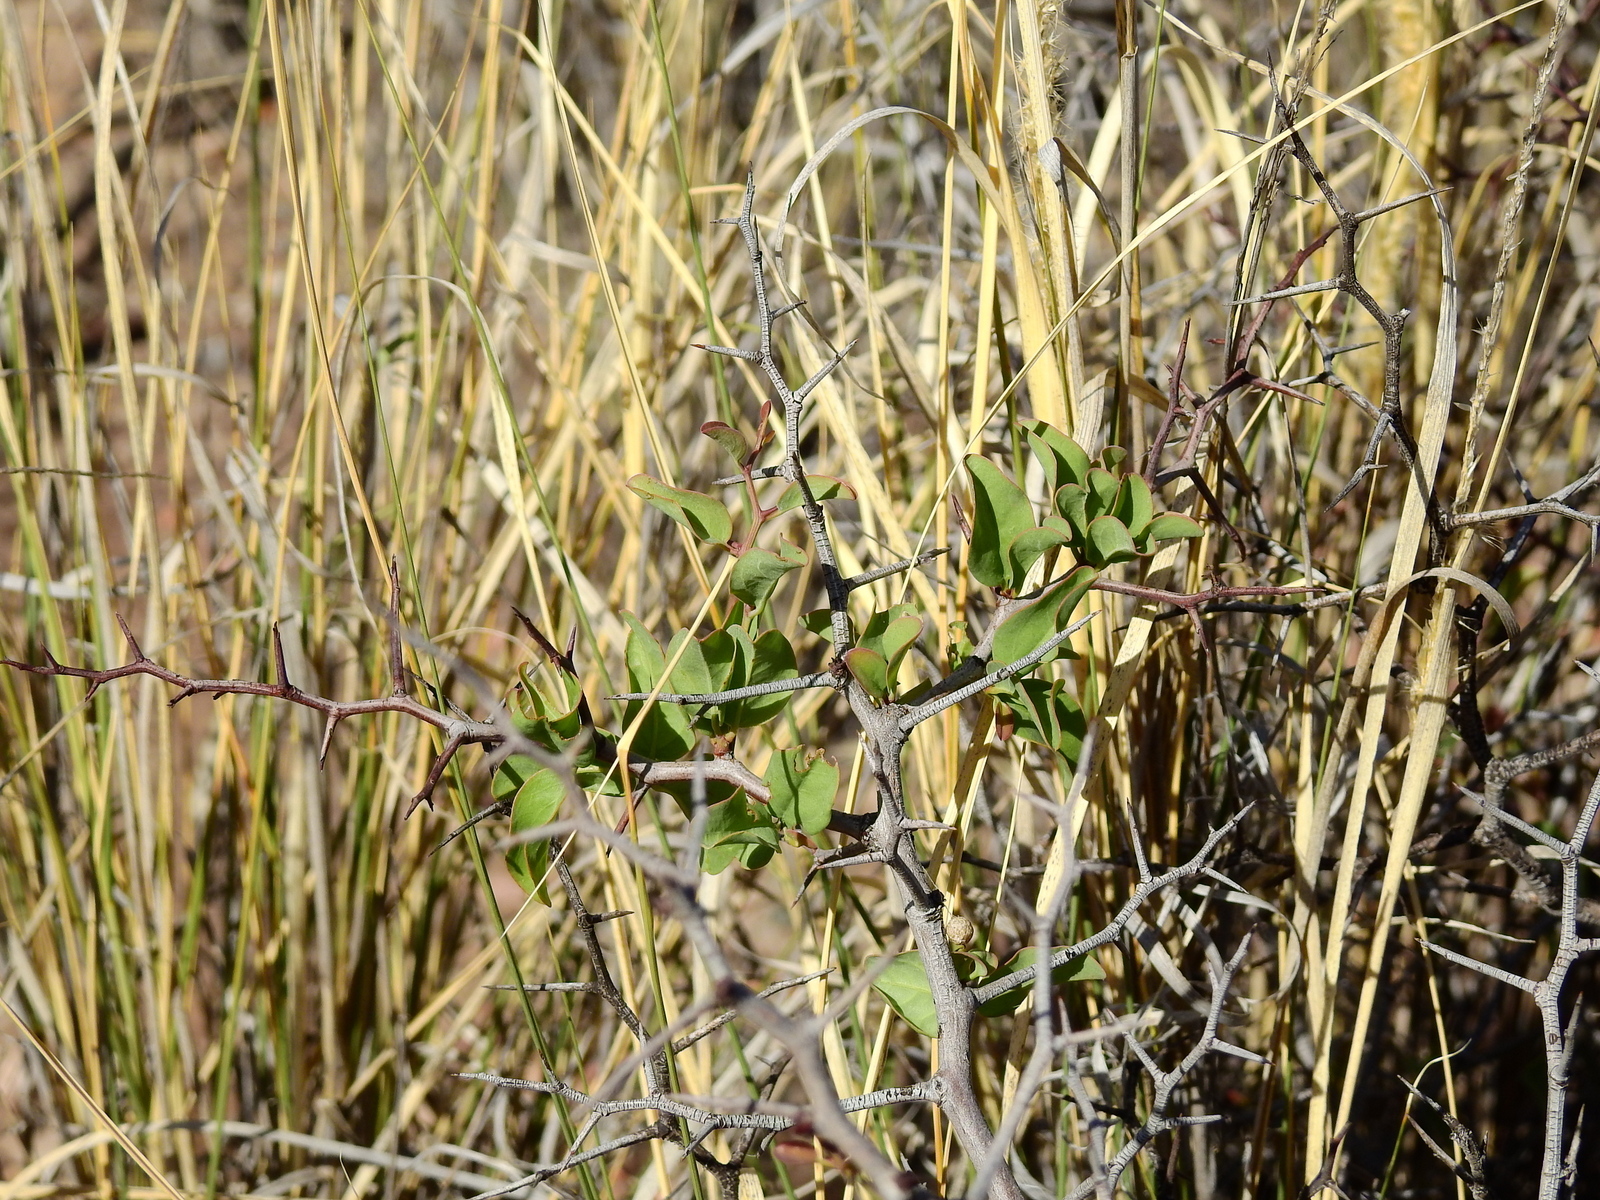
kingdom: Plantae
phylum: Tracheophyta
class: Magnoliopsida
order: Santalales
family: Ximeniaceae
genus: Ximenia
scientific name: Ximenia americana
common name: Tallowwood
